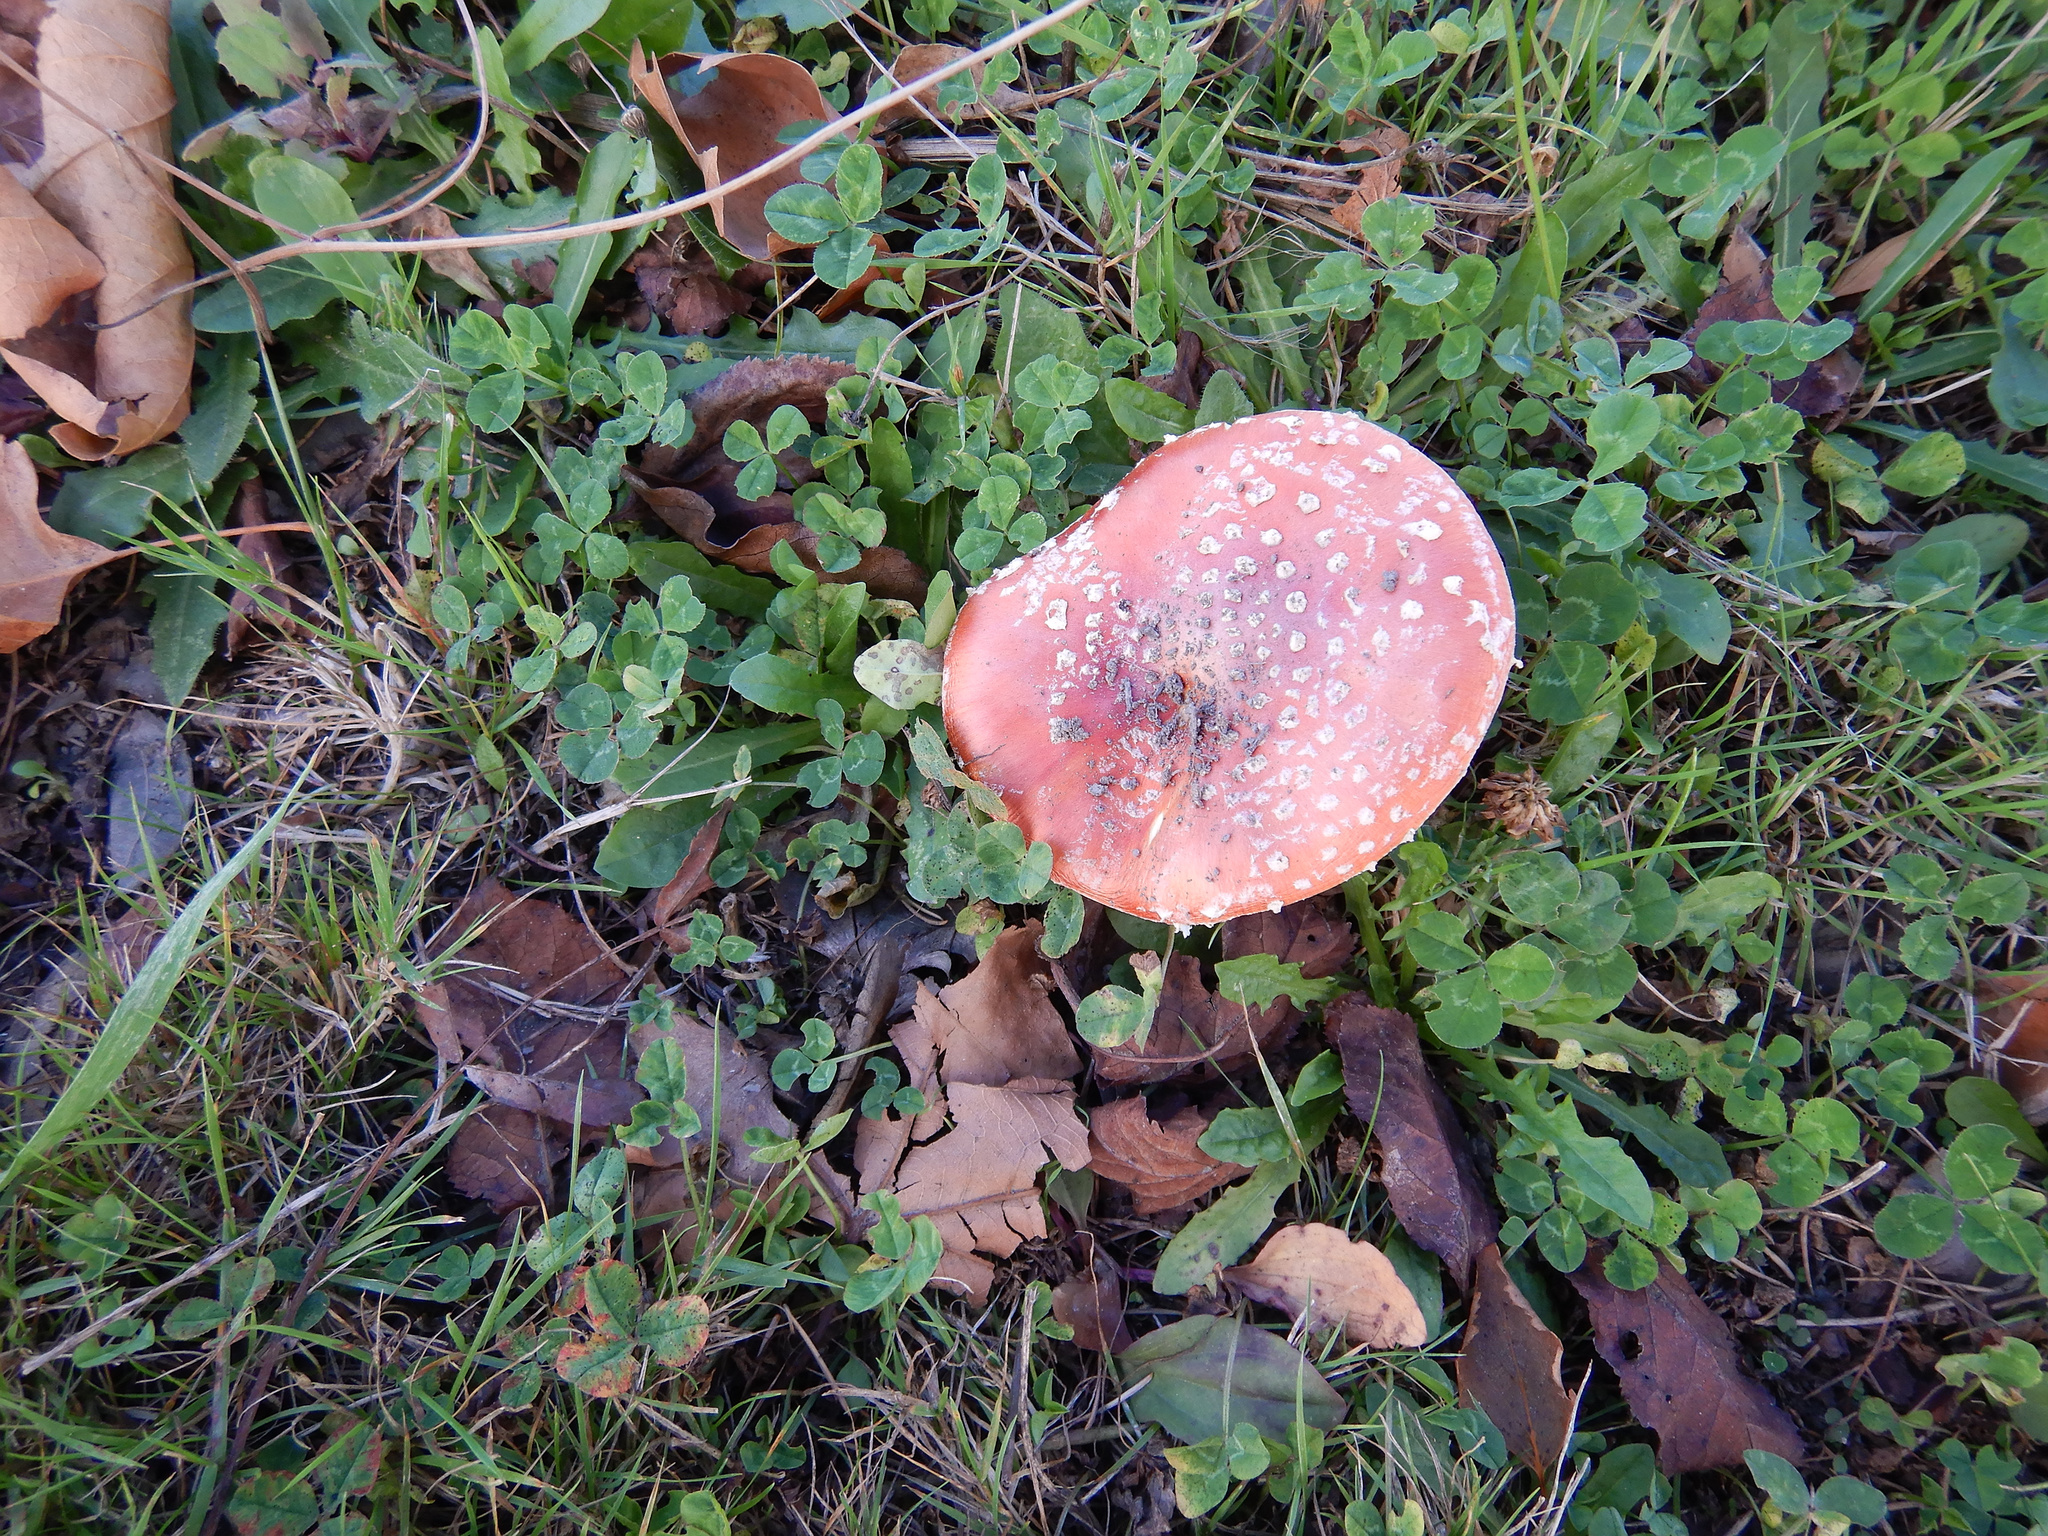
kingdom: Fungi
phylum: Basidiomycota
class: Agaricomycetes
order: Agaricales
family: Amanitaceae
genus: Amanita
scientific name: Amanita muscaria
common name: Fly agaric
